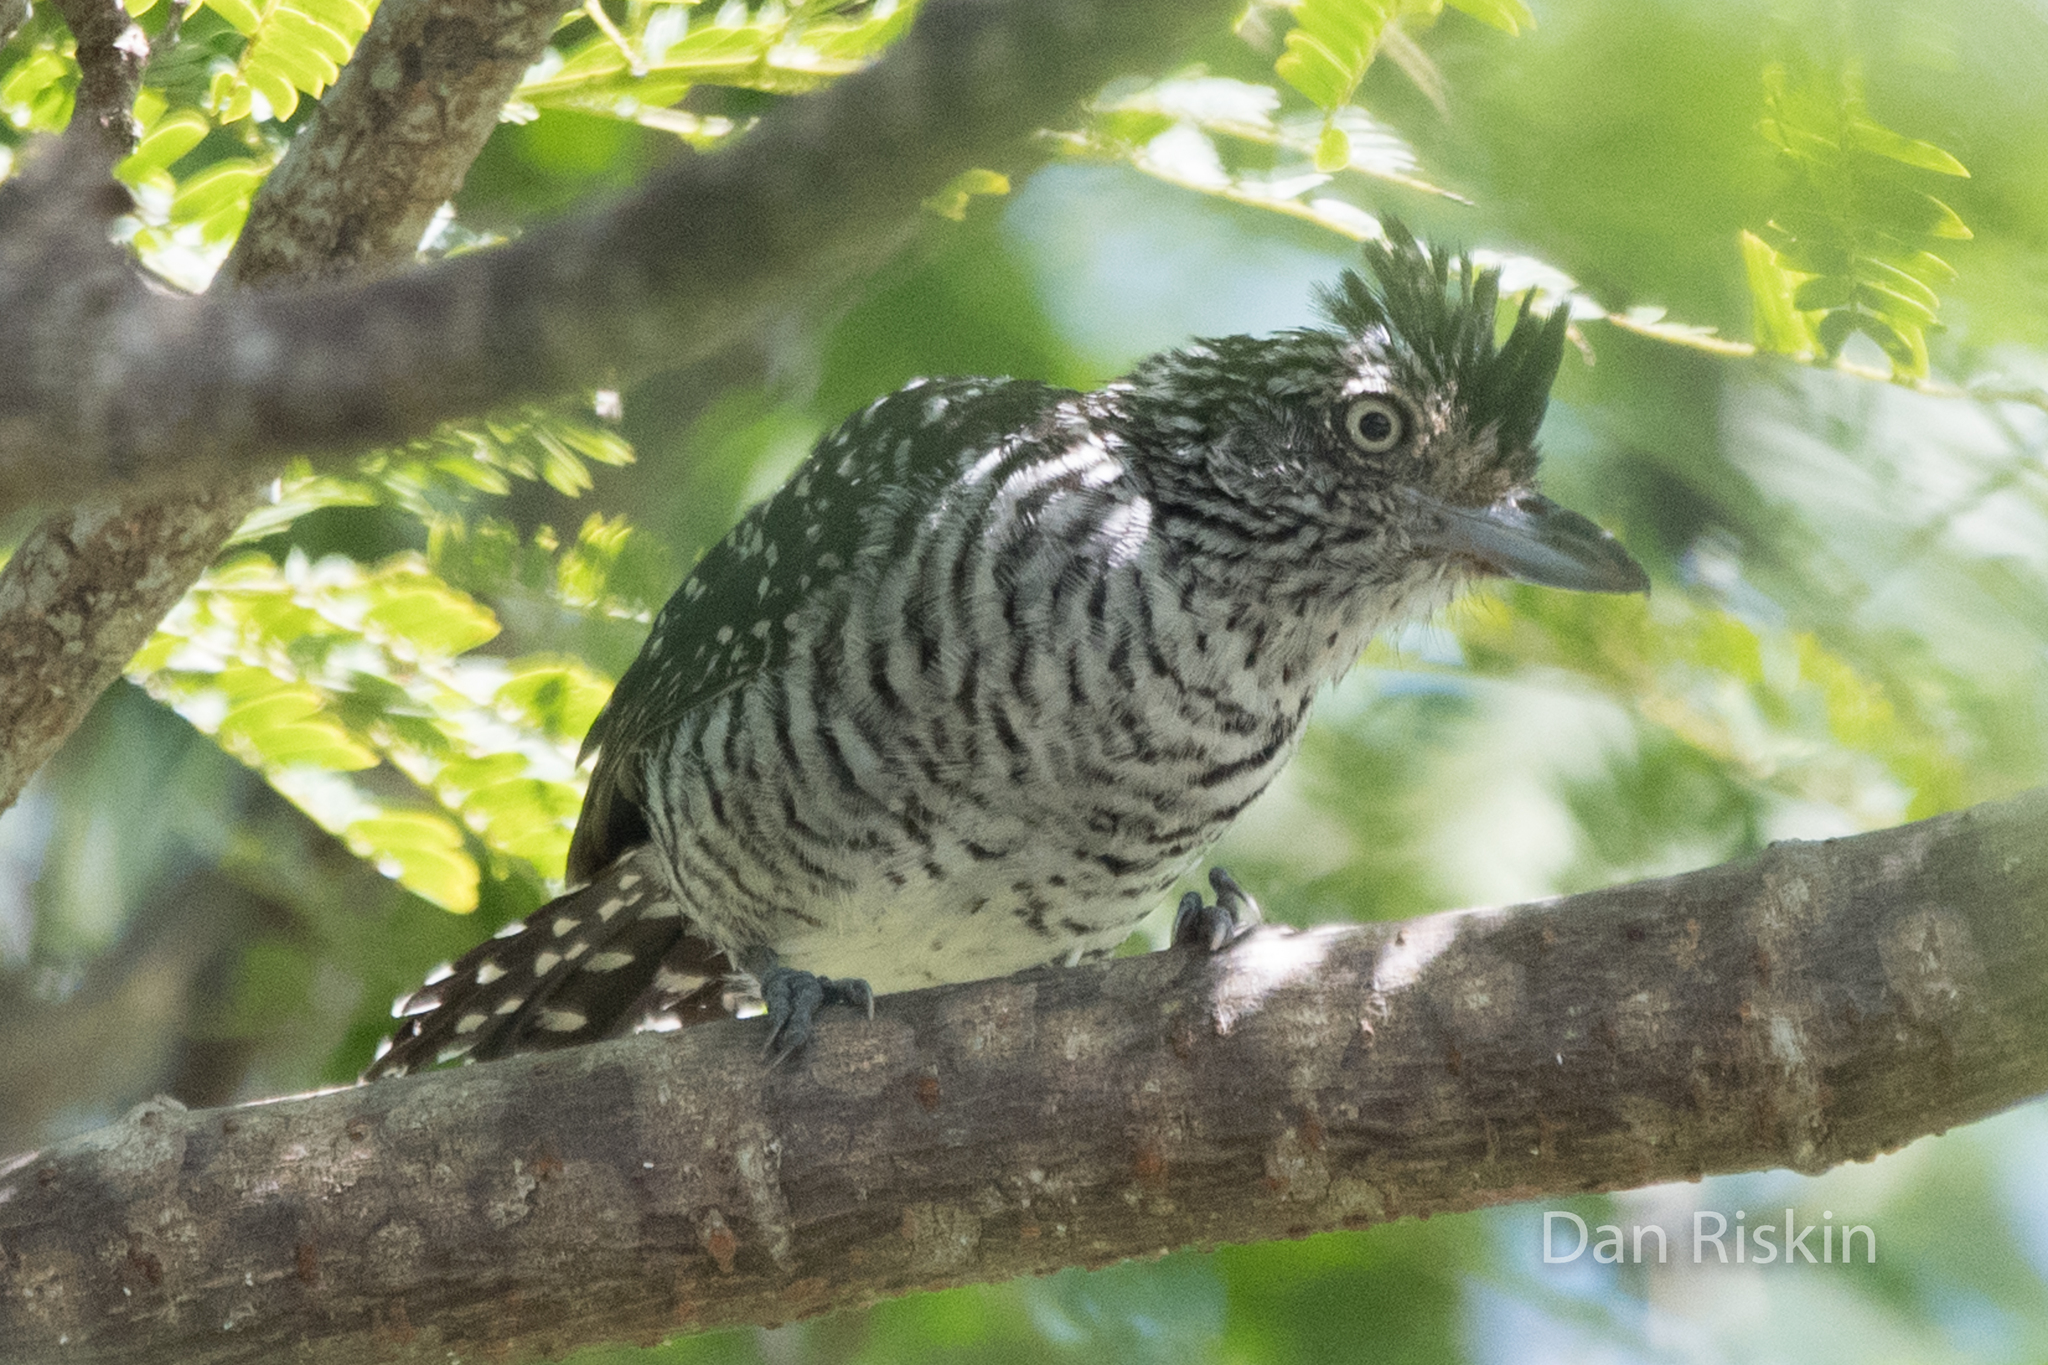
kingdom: Animalia
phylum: Chordata
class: Aves
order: Passeriformes
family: Thamnophilidae
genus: Thamnophilus
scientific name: Thamnophilus doliatus
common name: Barred antshrike
